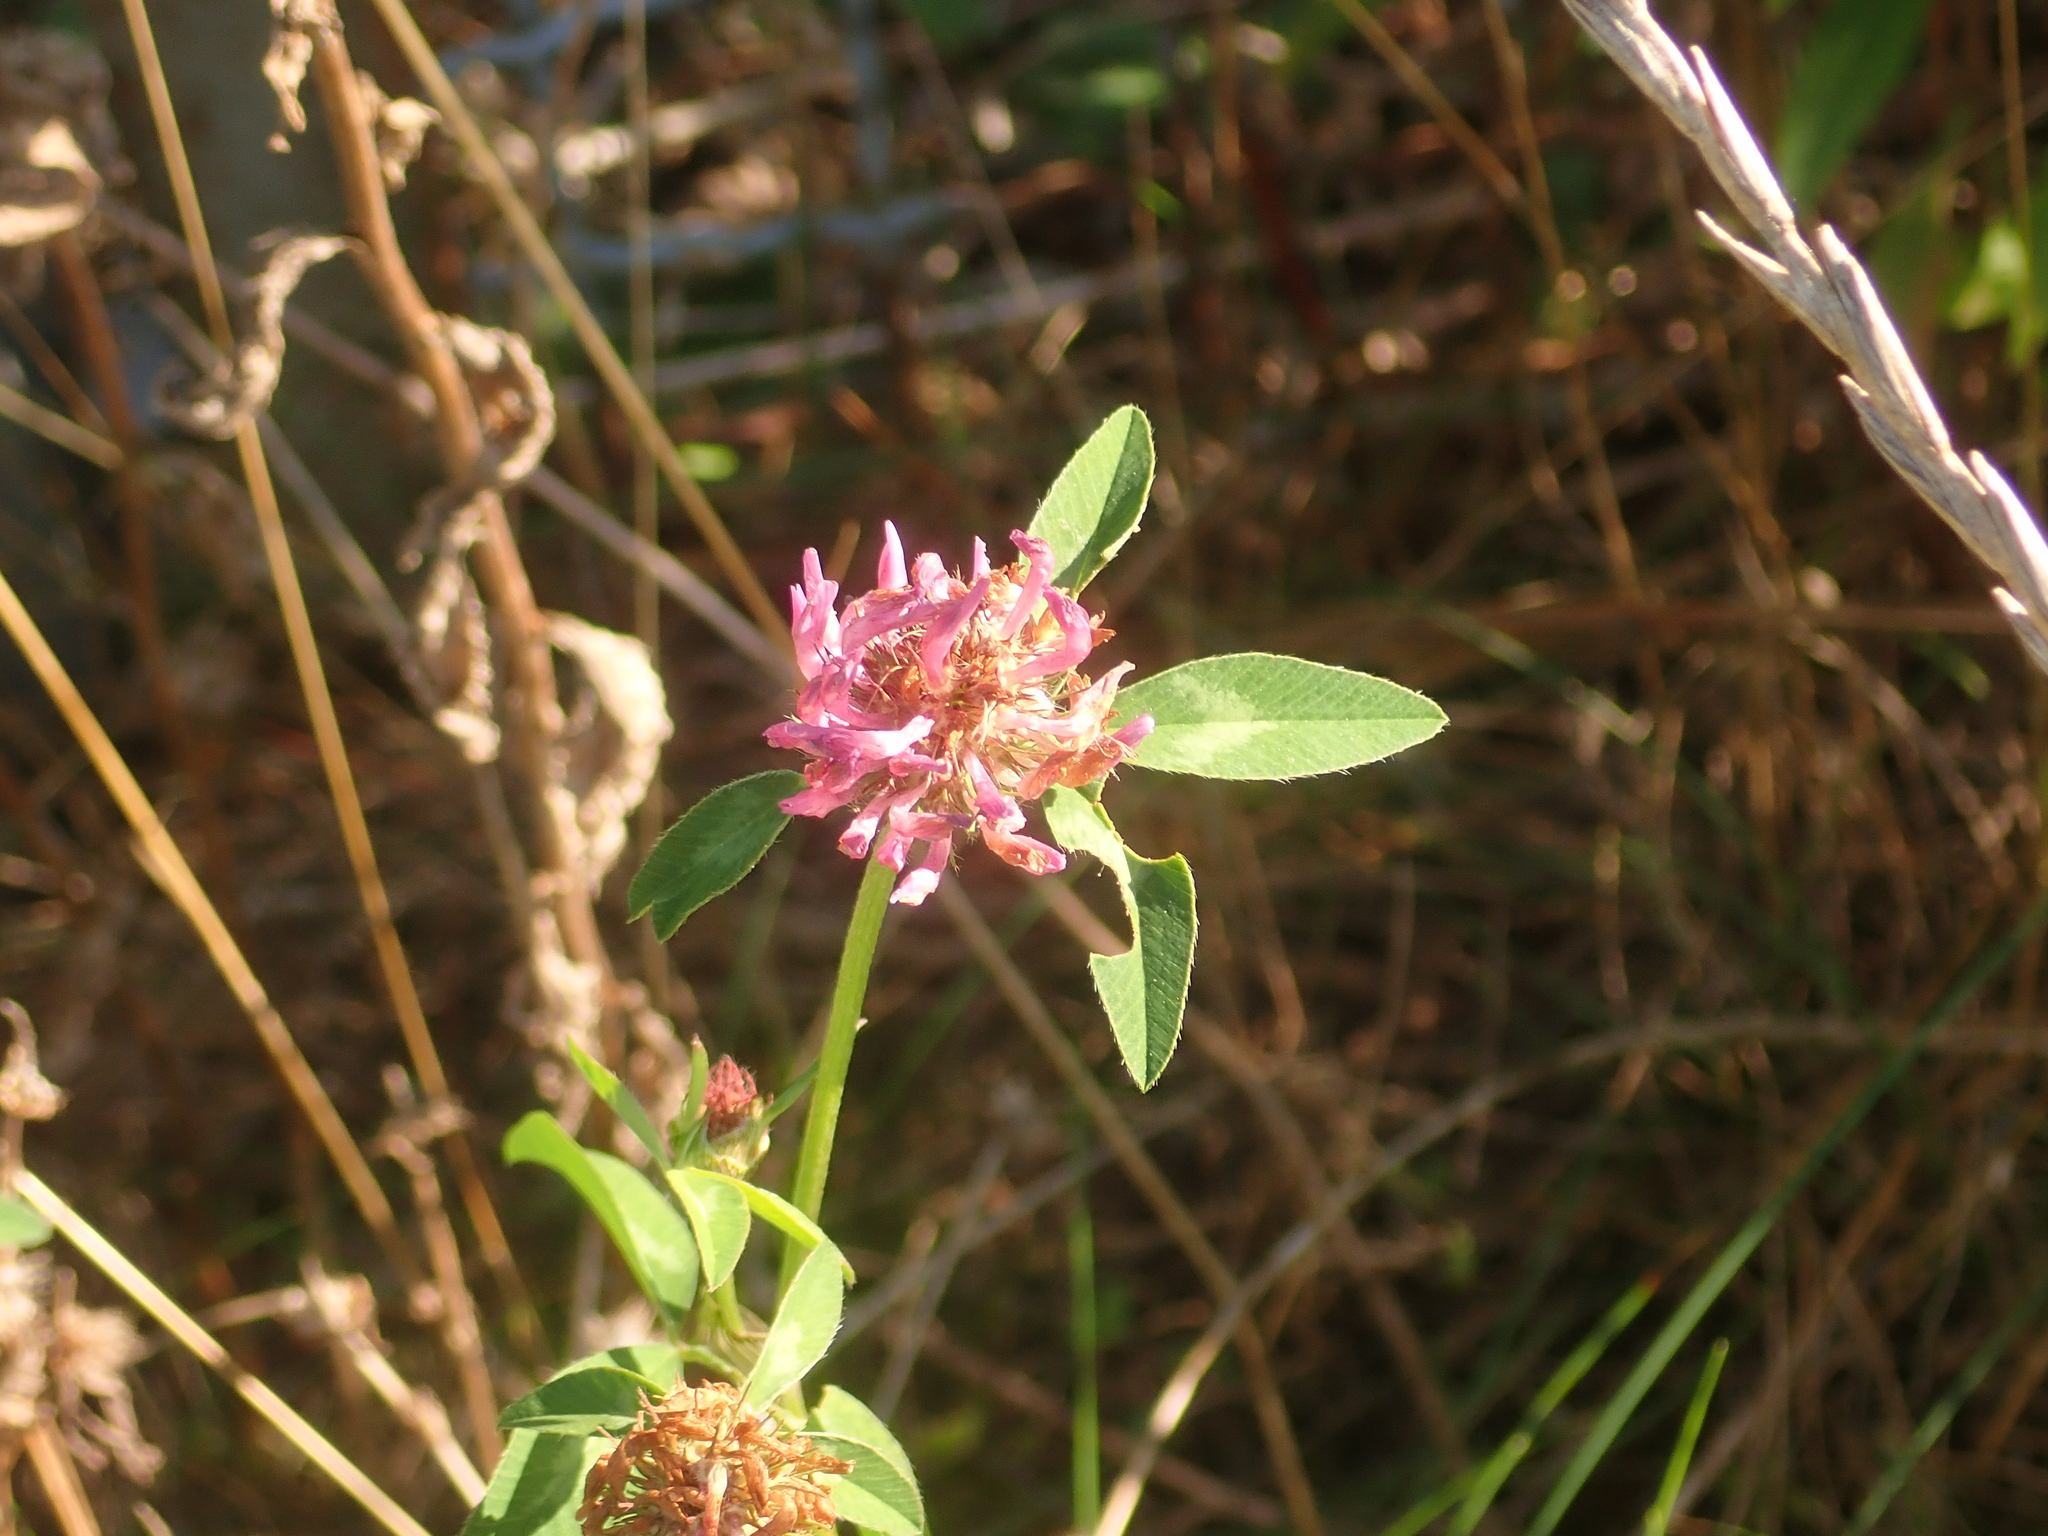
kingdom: Plantae
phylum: Tracheophyta
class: Magnoliopsida
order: Fabales
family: Fabaceae
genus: Trifolium
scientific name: Trifolium pratense
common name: Red clover
